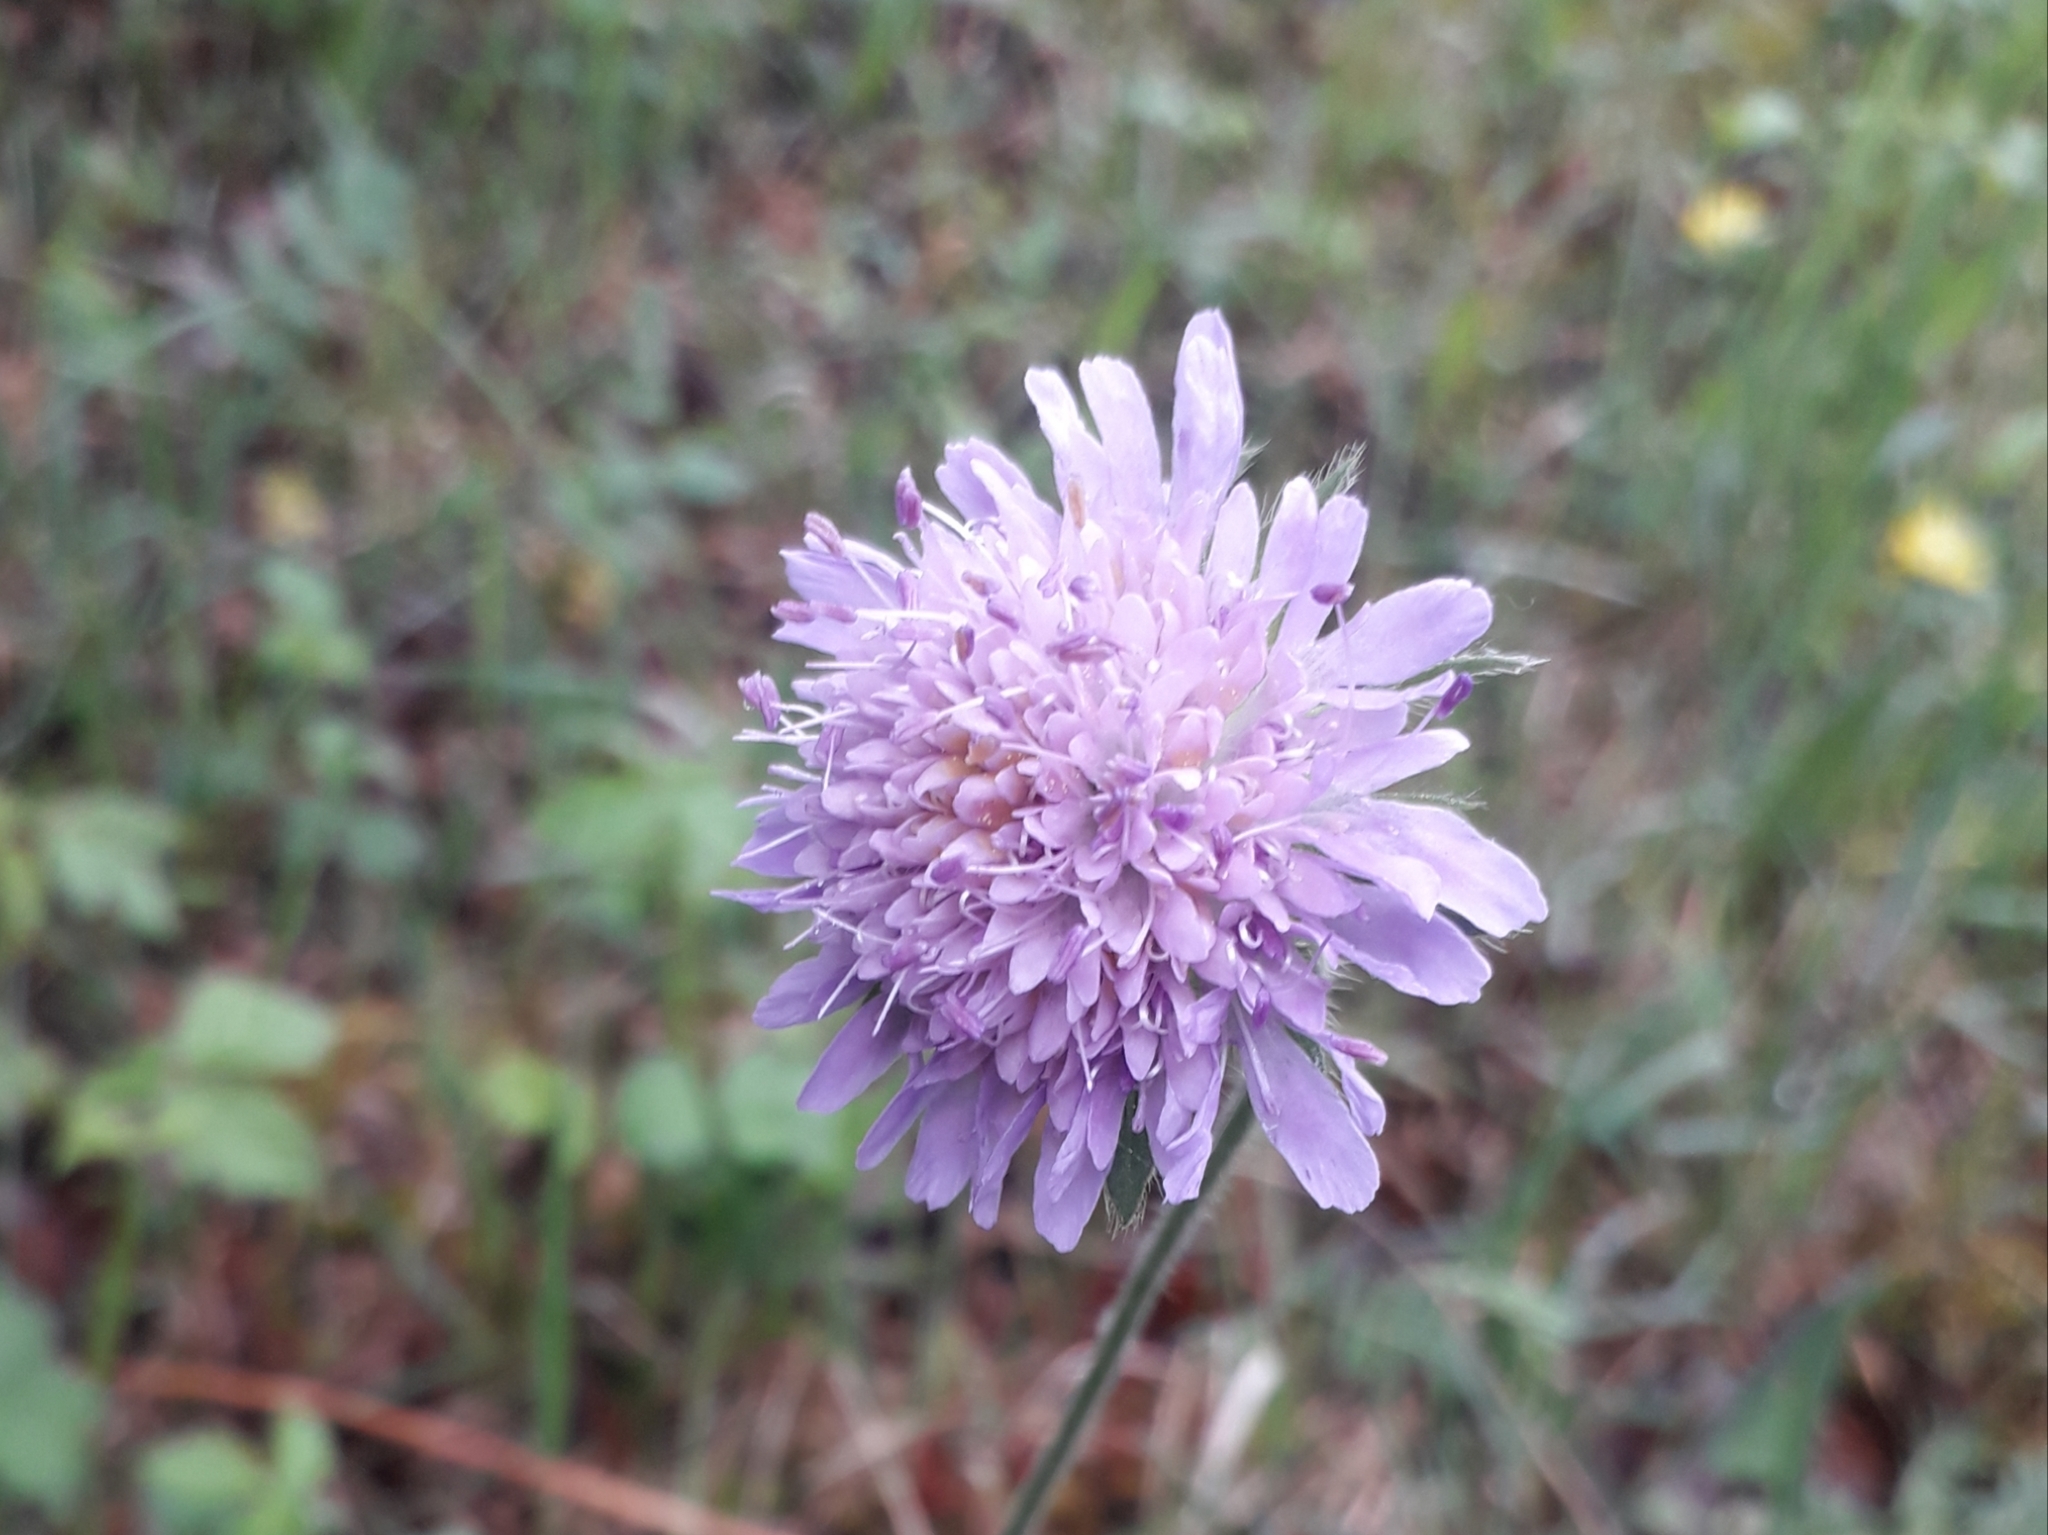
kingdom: Plantae
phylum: Tracheophyta
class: Magnoliopsida
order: Dipsacales
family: Caprifoliaceae
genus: Knautia
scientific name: Knautia arvensis
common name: Field scabiosa
